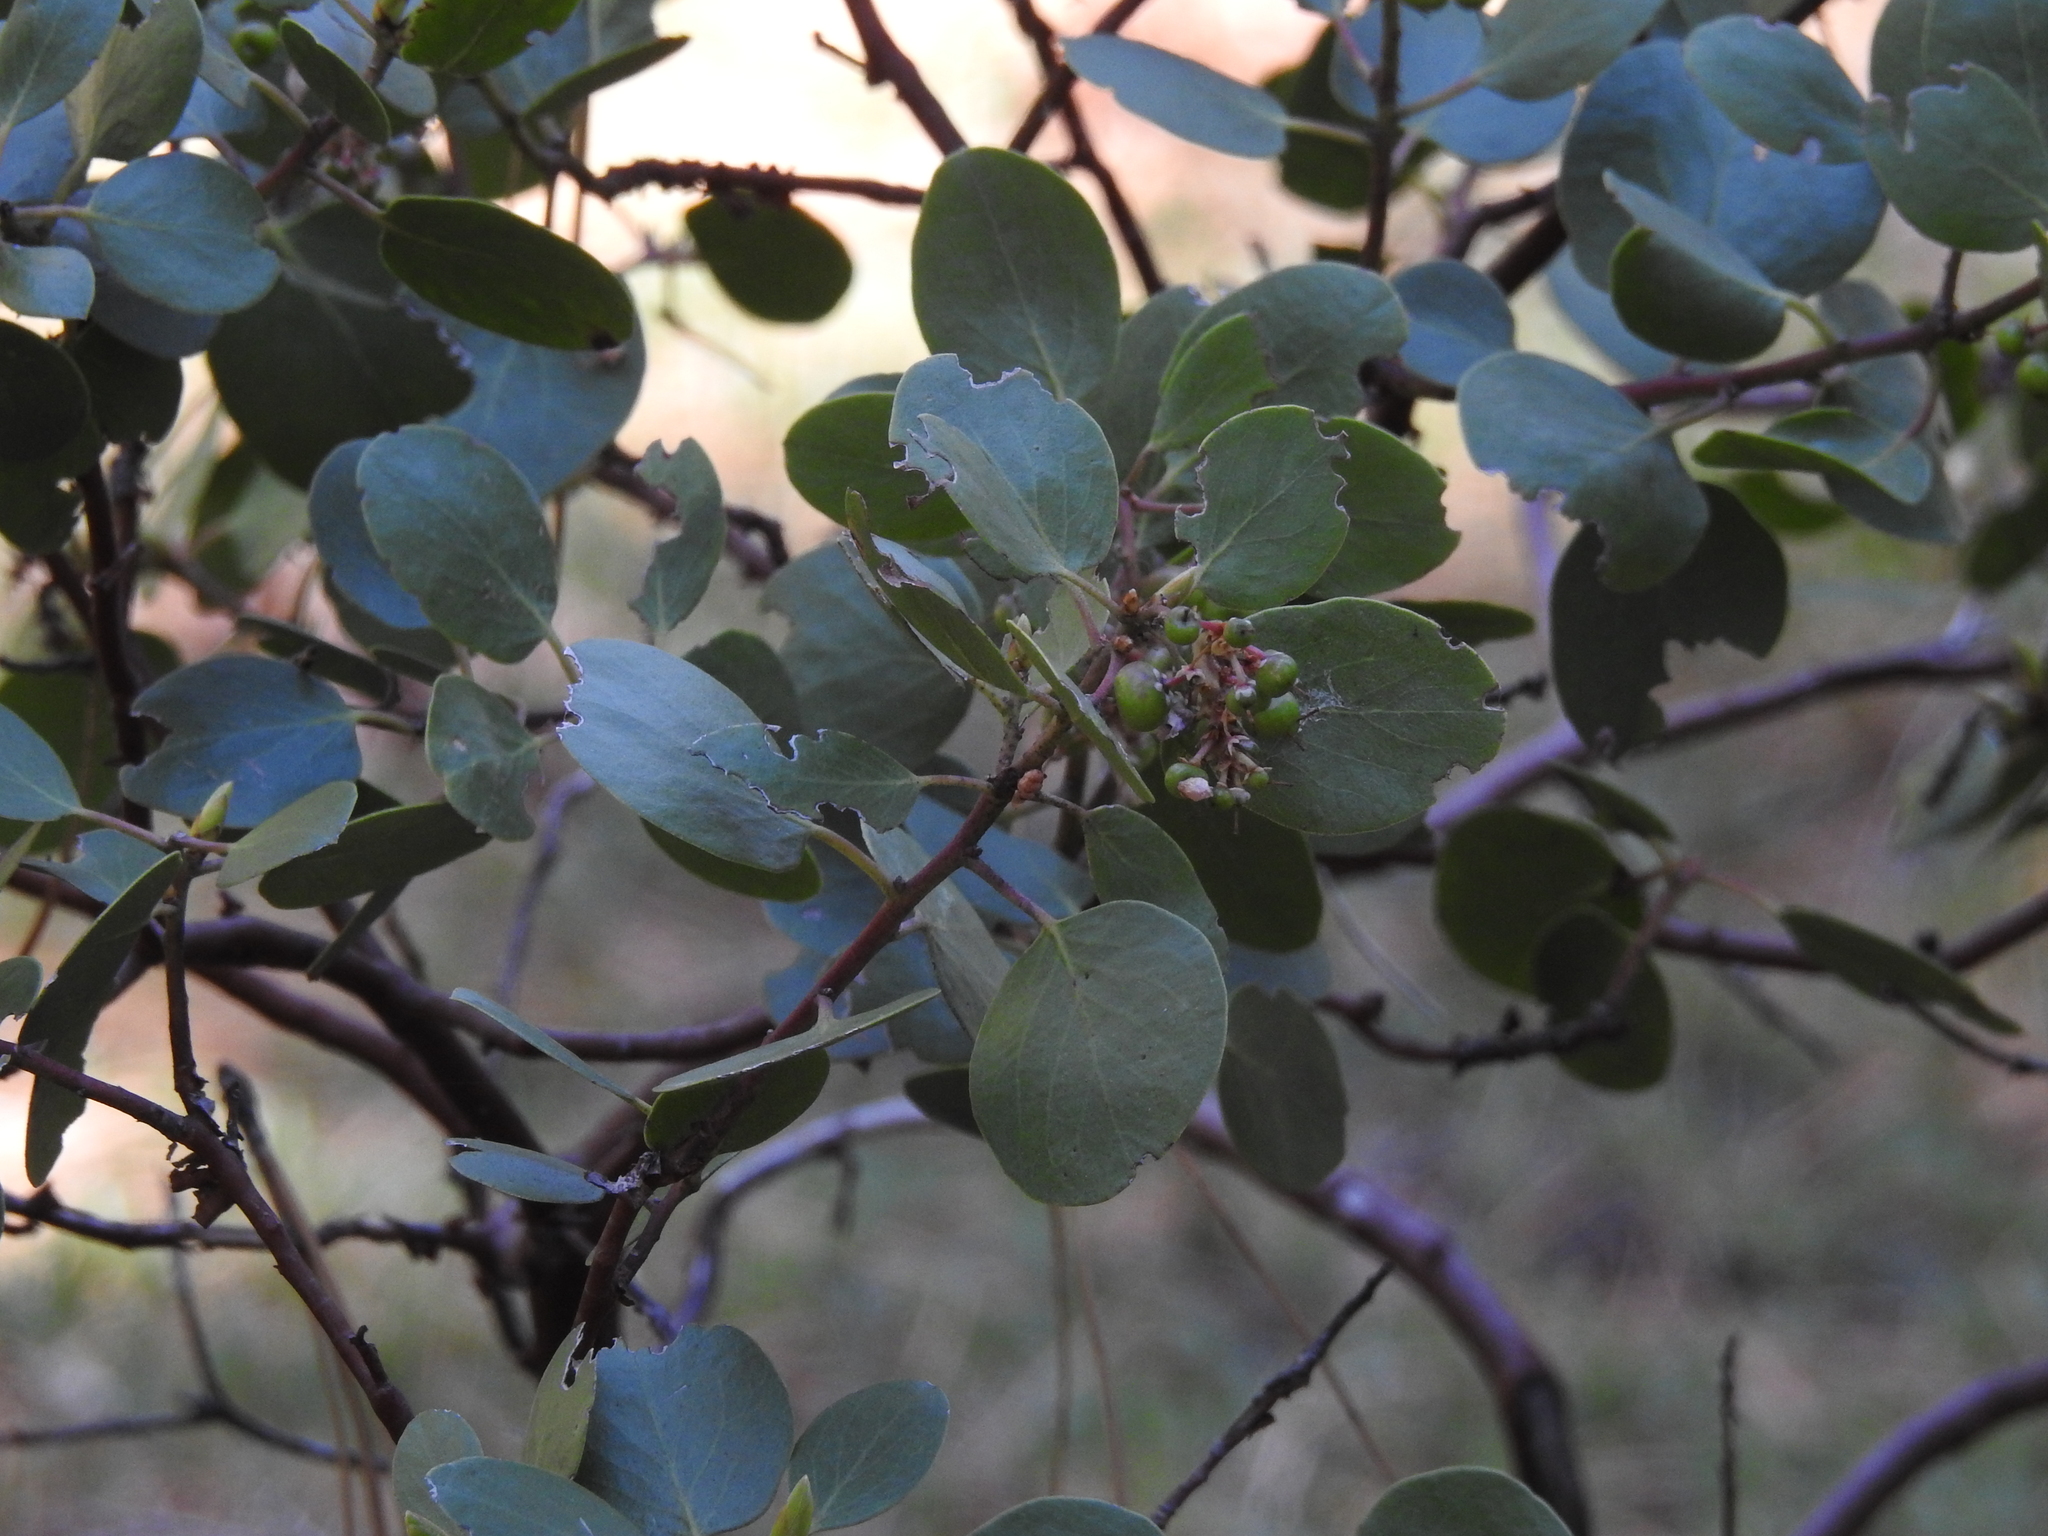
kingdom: Plantae
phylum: Tracheophyta
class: Magnoliopsida
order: Ericales
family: Ericaceae
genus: Arctostaphylos
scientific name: Arctostaphylos patula
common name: Green-leaf manzanita
